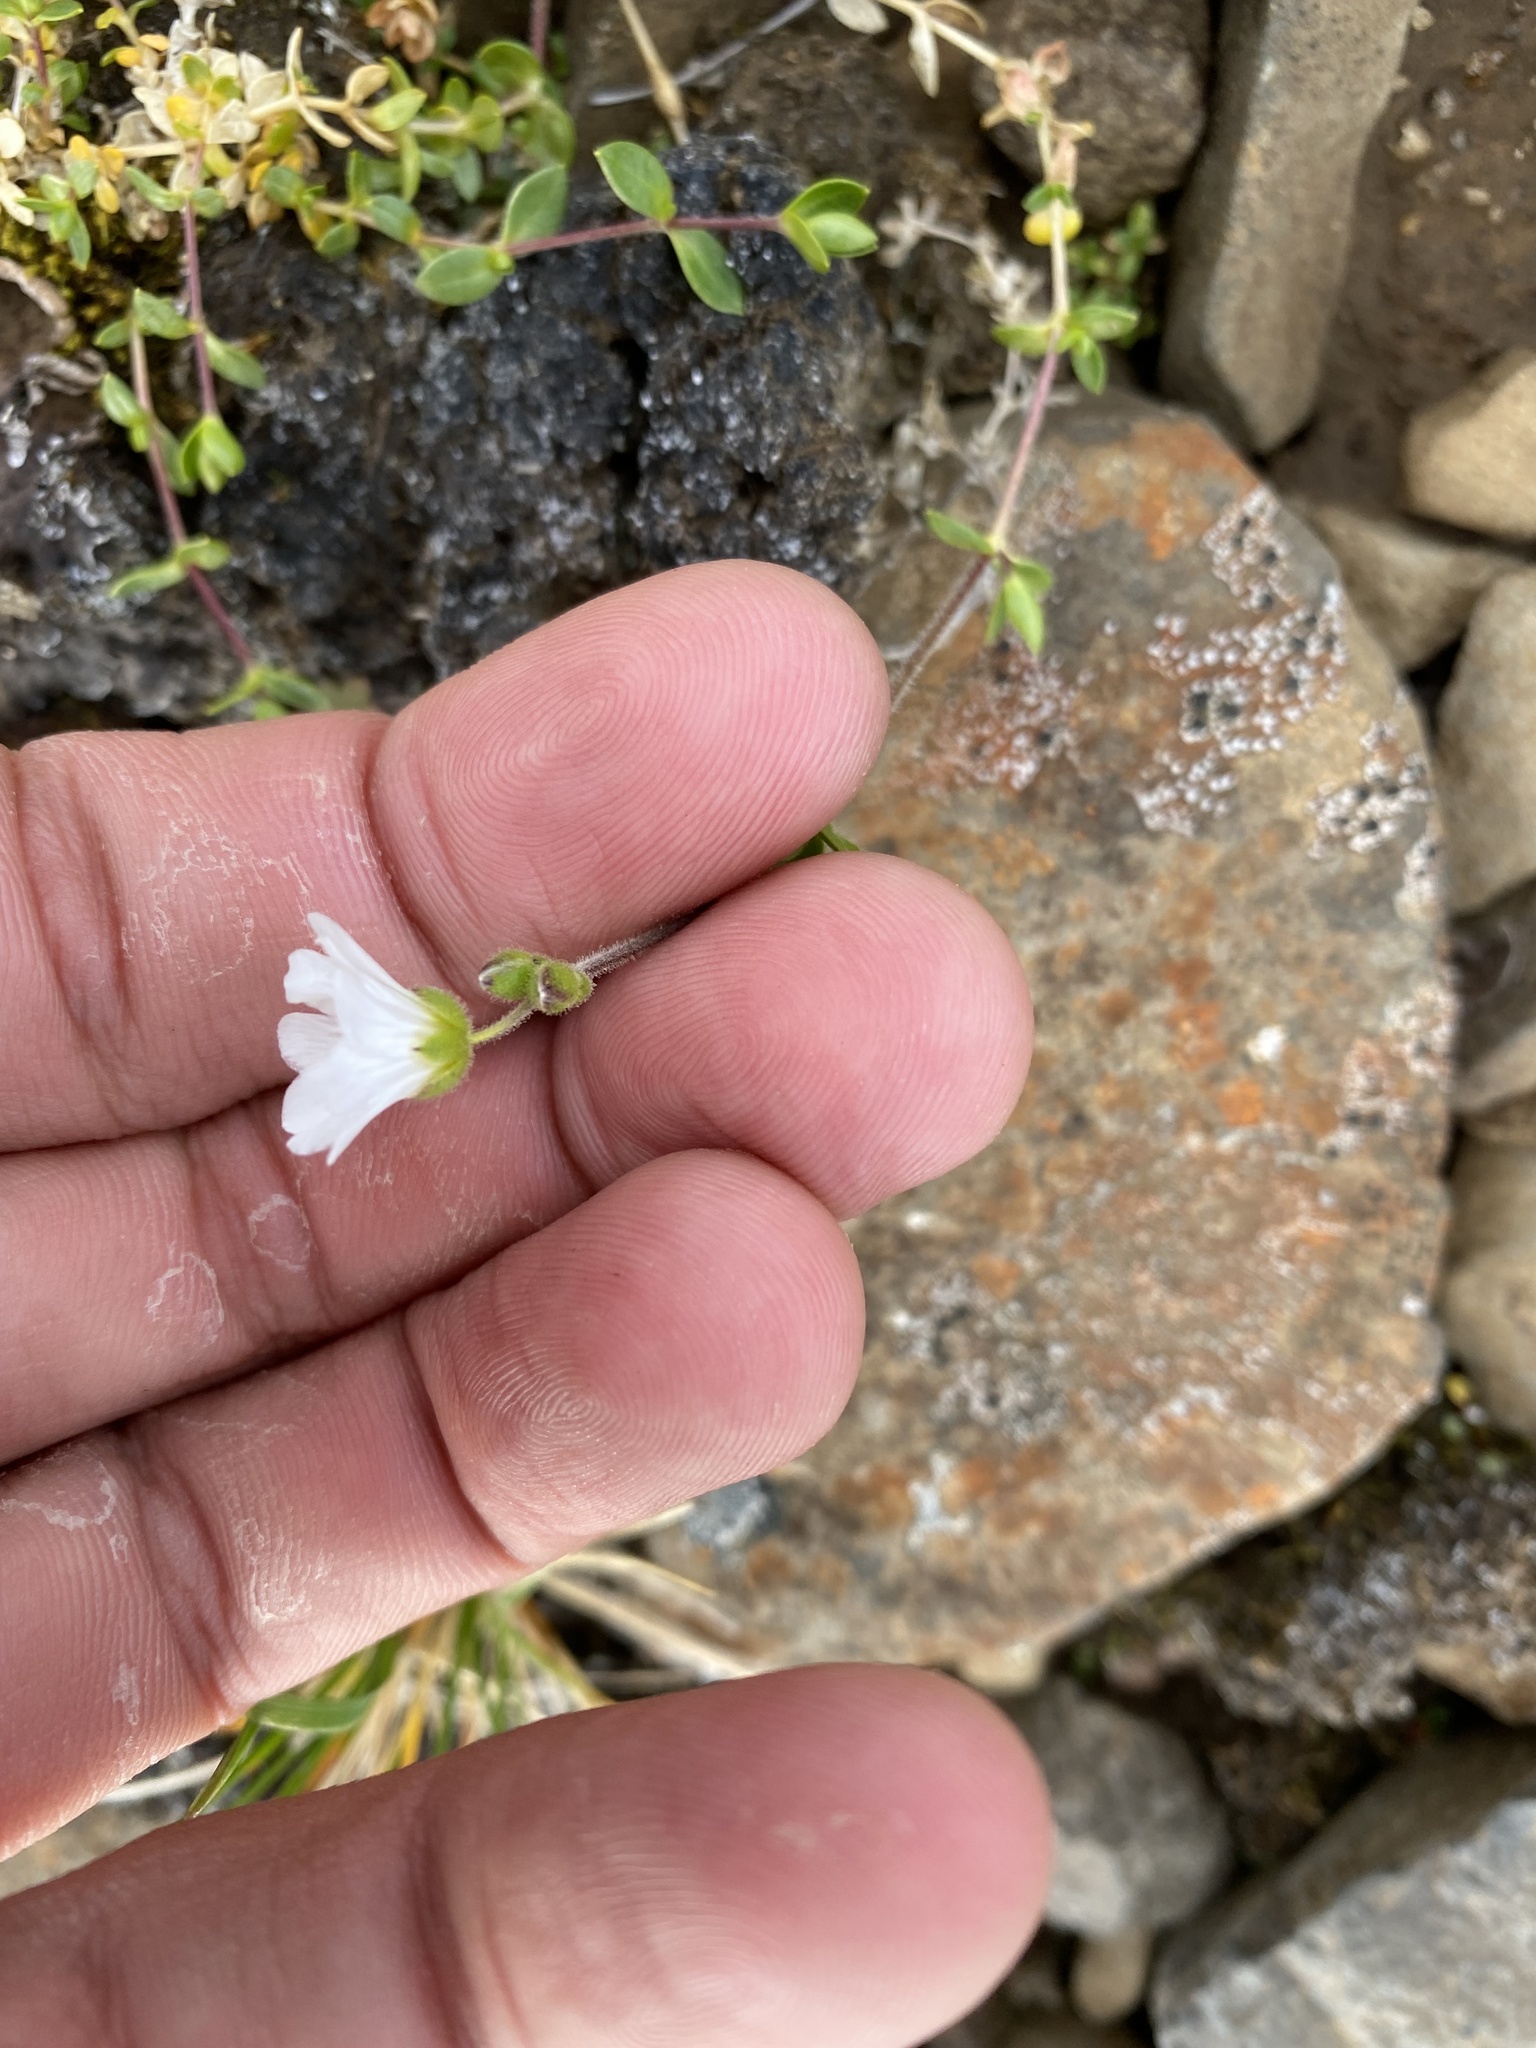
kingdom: Plantae
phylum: Tracheophyta
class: Magnoliopsida
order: Caryophyllales
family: Caryophyllaceae
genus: Cerastium
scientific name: Cerastium regelii
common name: Regel's chickweed
